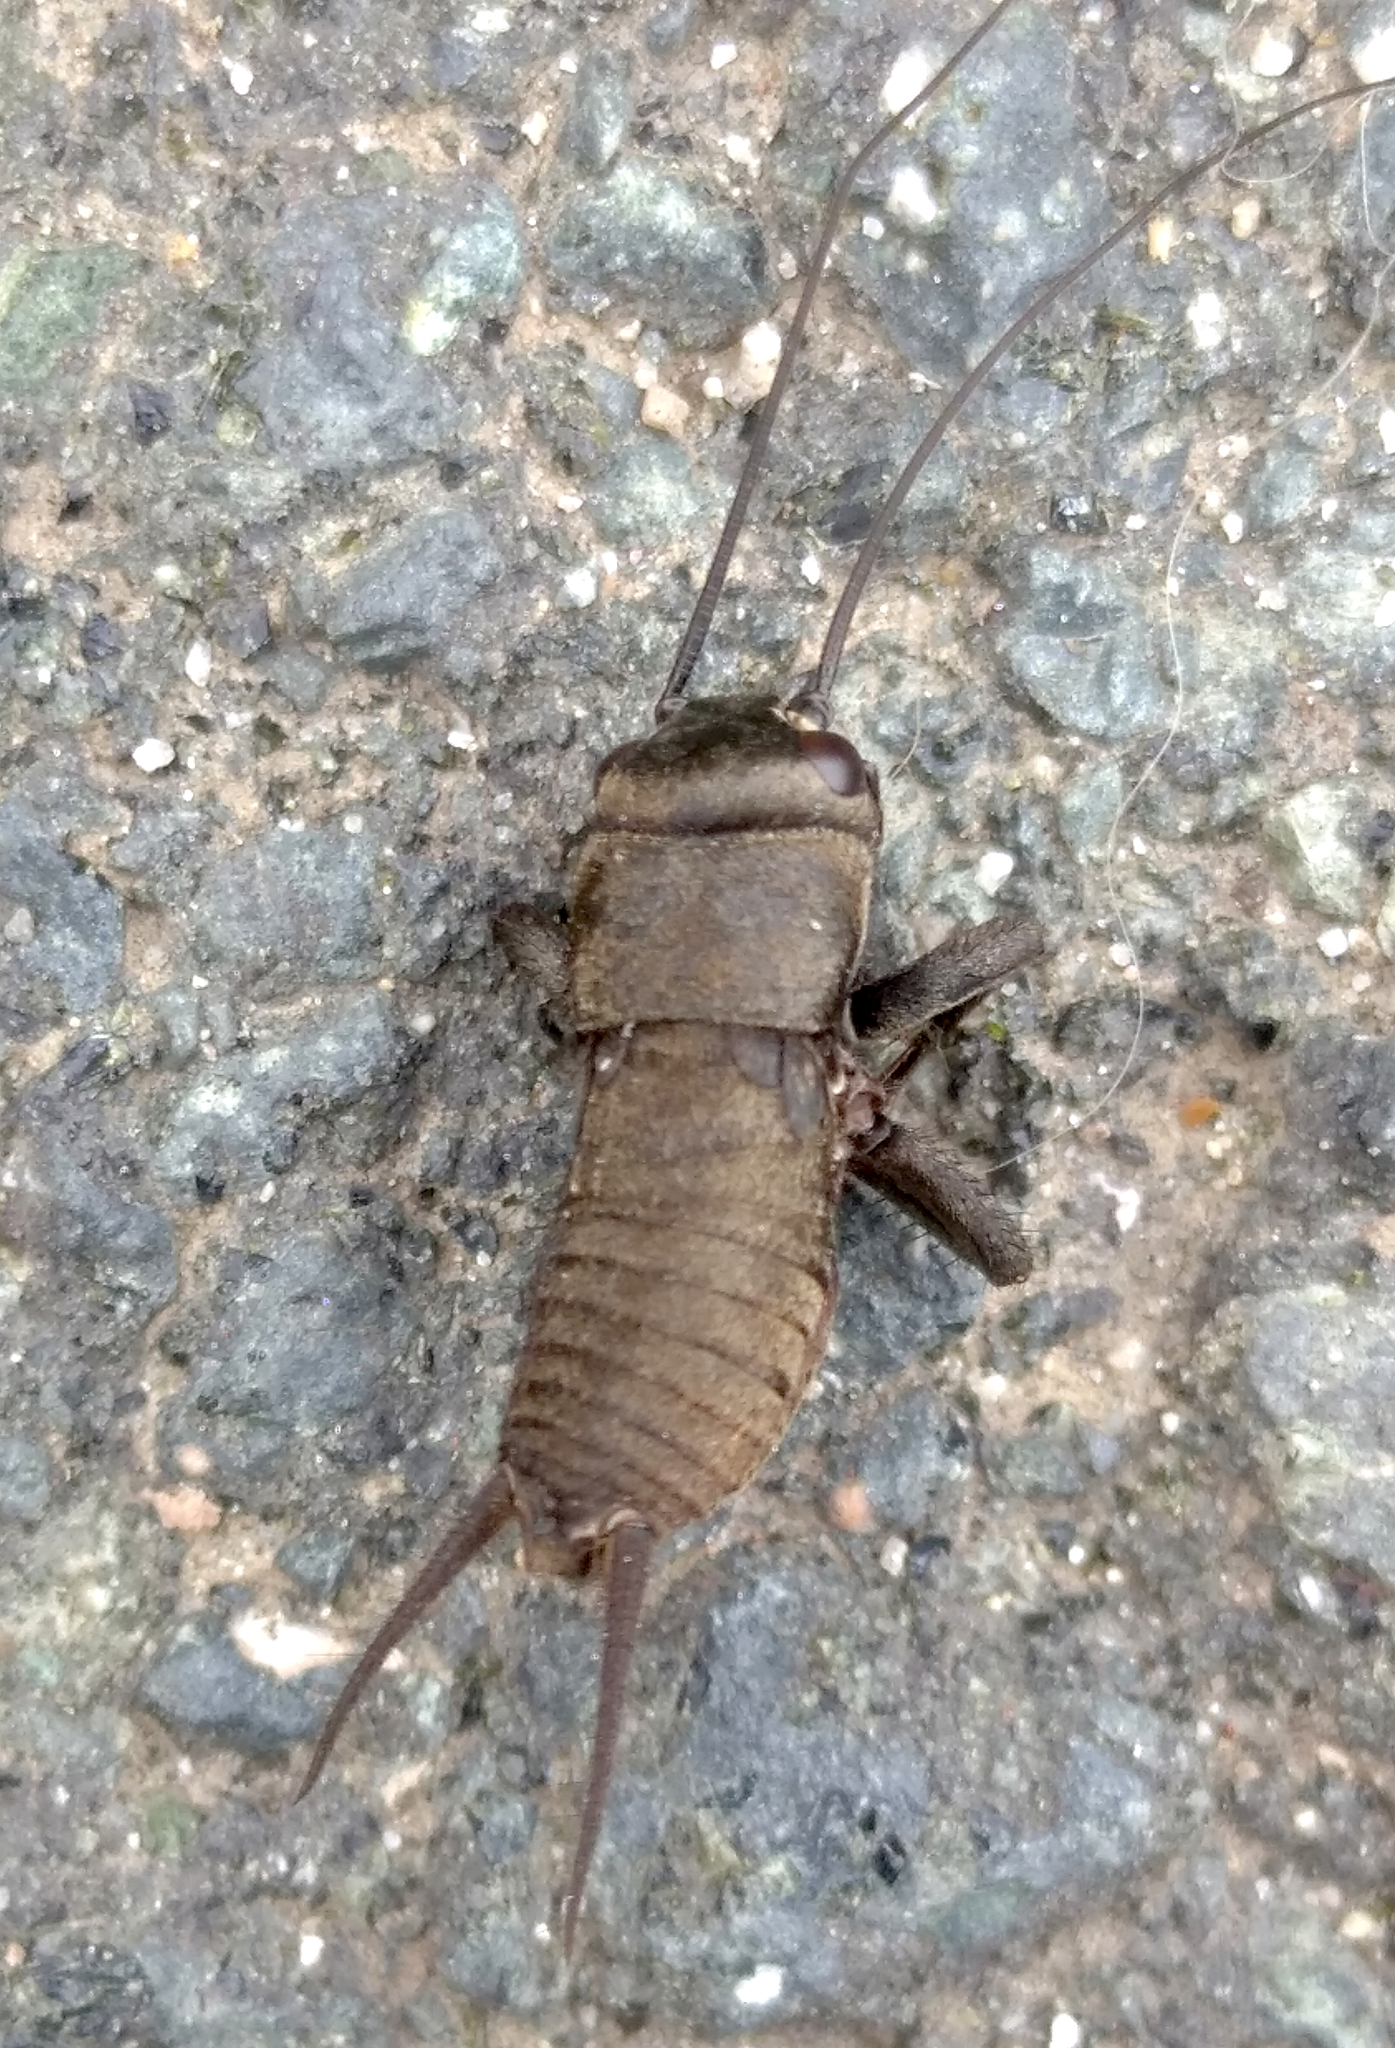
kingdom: Animalia
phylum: Arthropoda
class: Insecta
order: Orthoptera
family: Gryllidae
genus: Gryllus
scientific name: Gryllus campestris
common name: Field cricket
